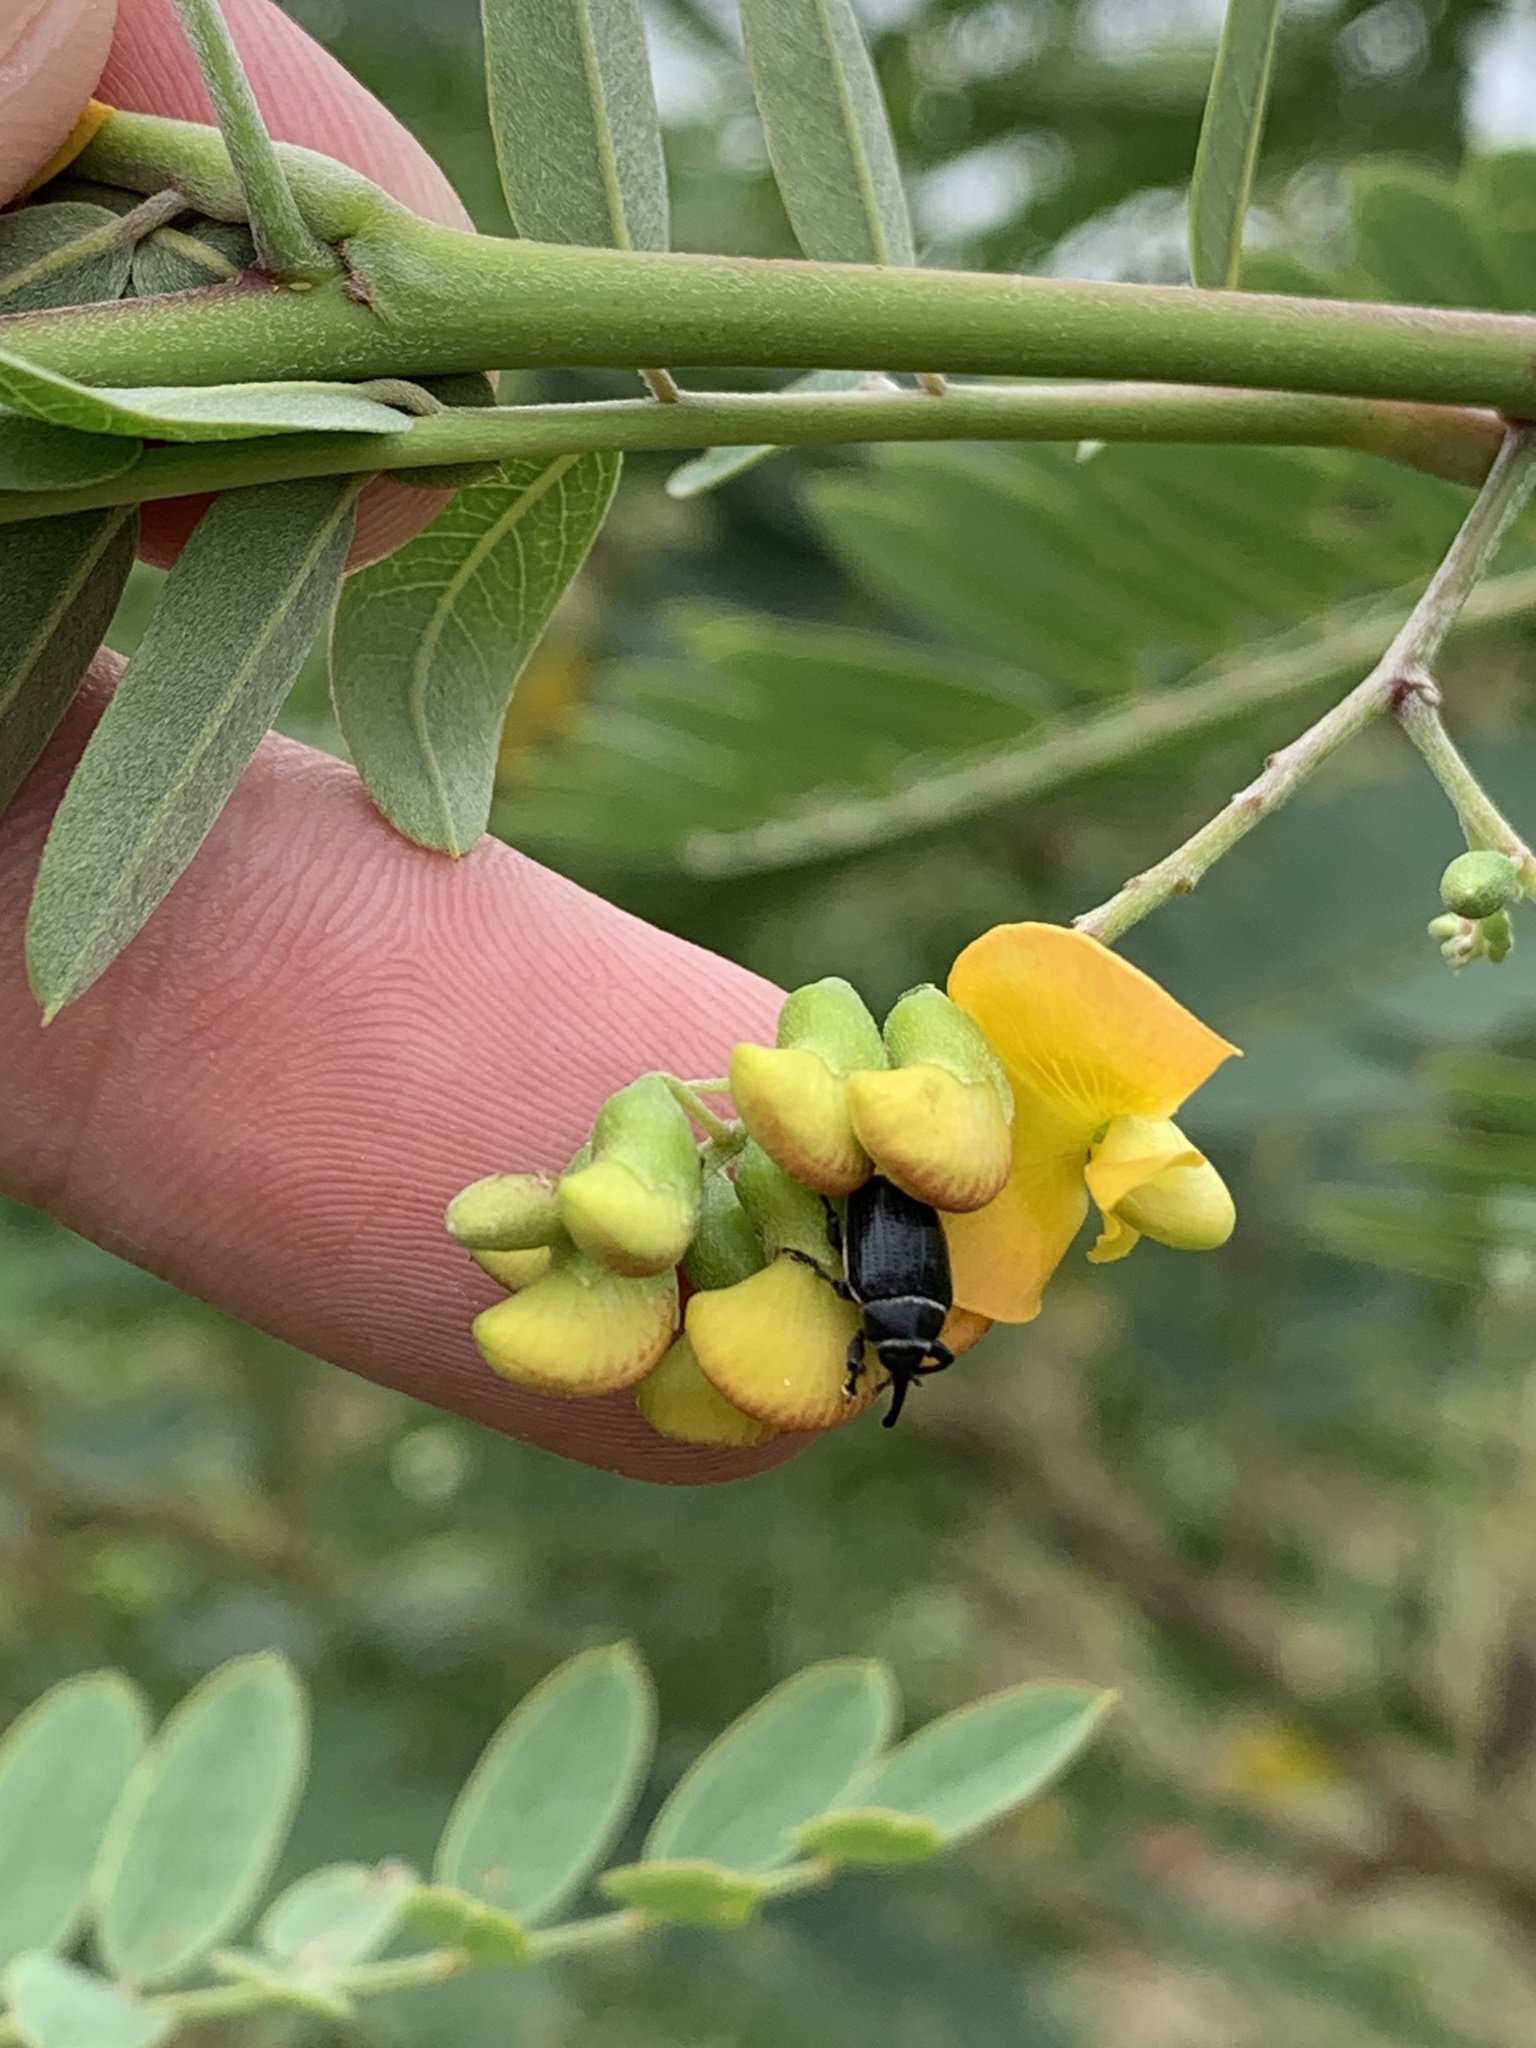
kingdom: Animalia
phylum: Arthropoda
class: Insecta
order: Coleoptera
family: Curculionidae
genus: Rhyssomatus
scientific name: Rhyssomatus marginatus
